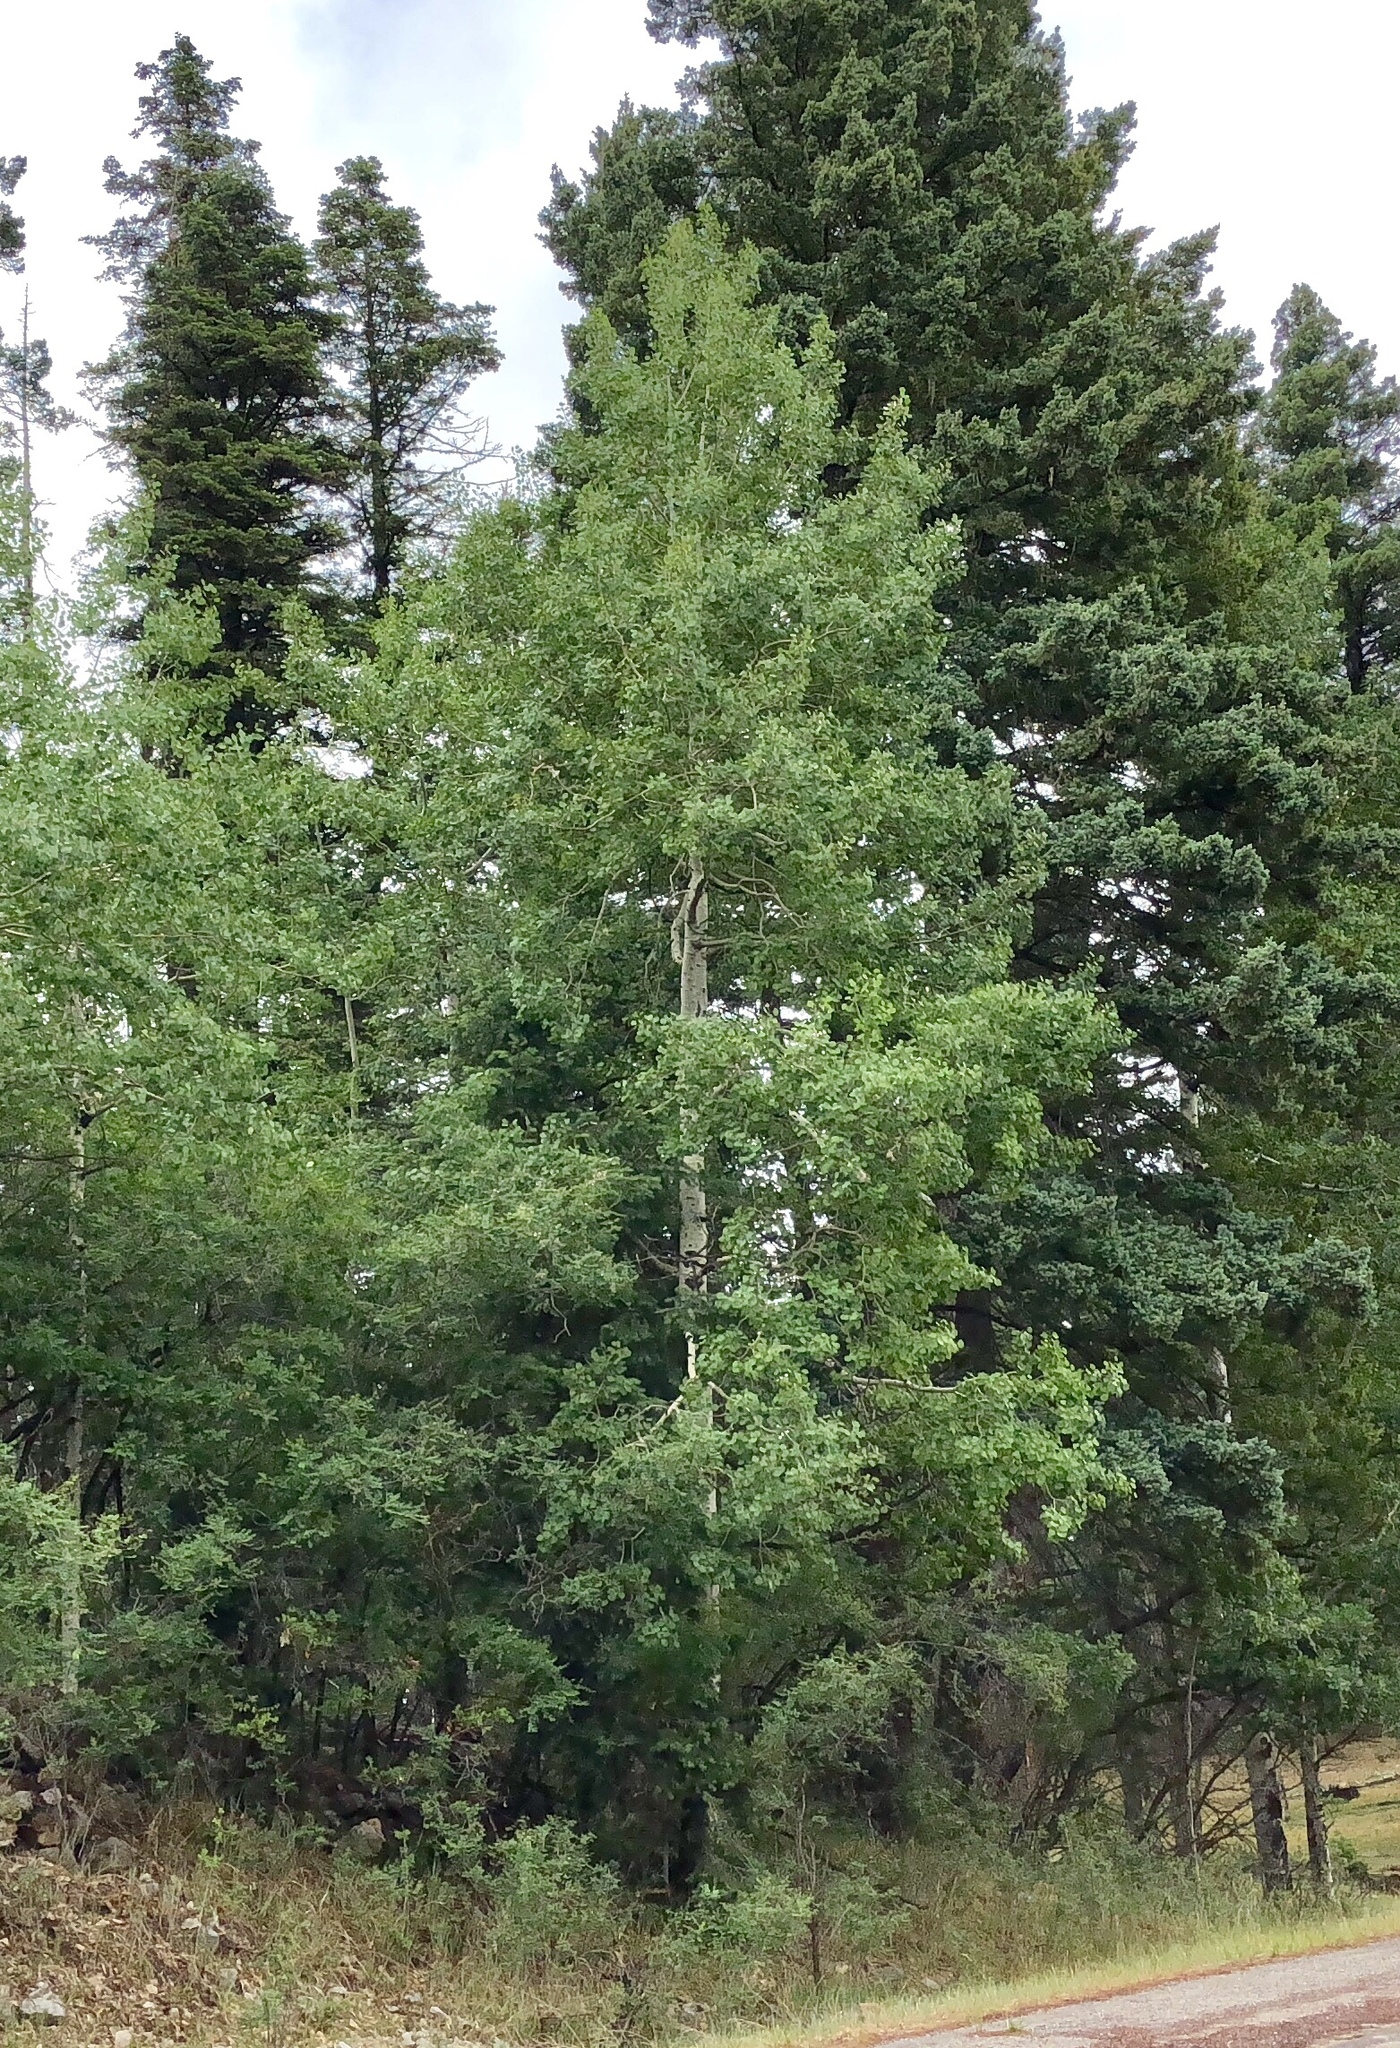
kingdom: Plantae
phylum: Tracheophyta
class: Magnoliopsida
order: Malpighiales
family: Salicaceae
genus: Populus
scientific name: Populus tremuloides
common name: Quaking aspen
